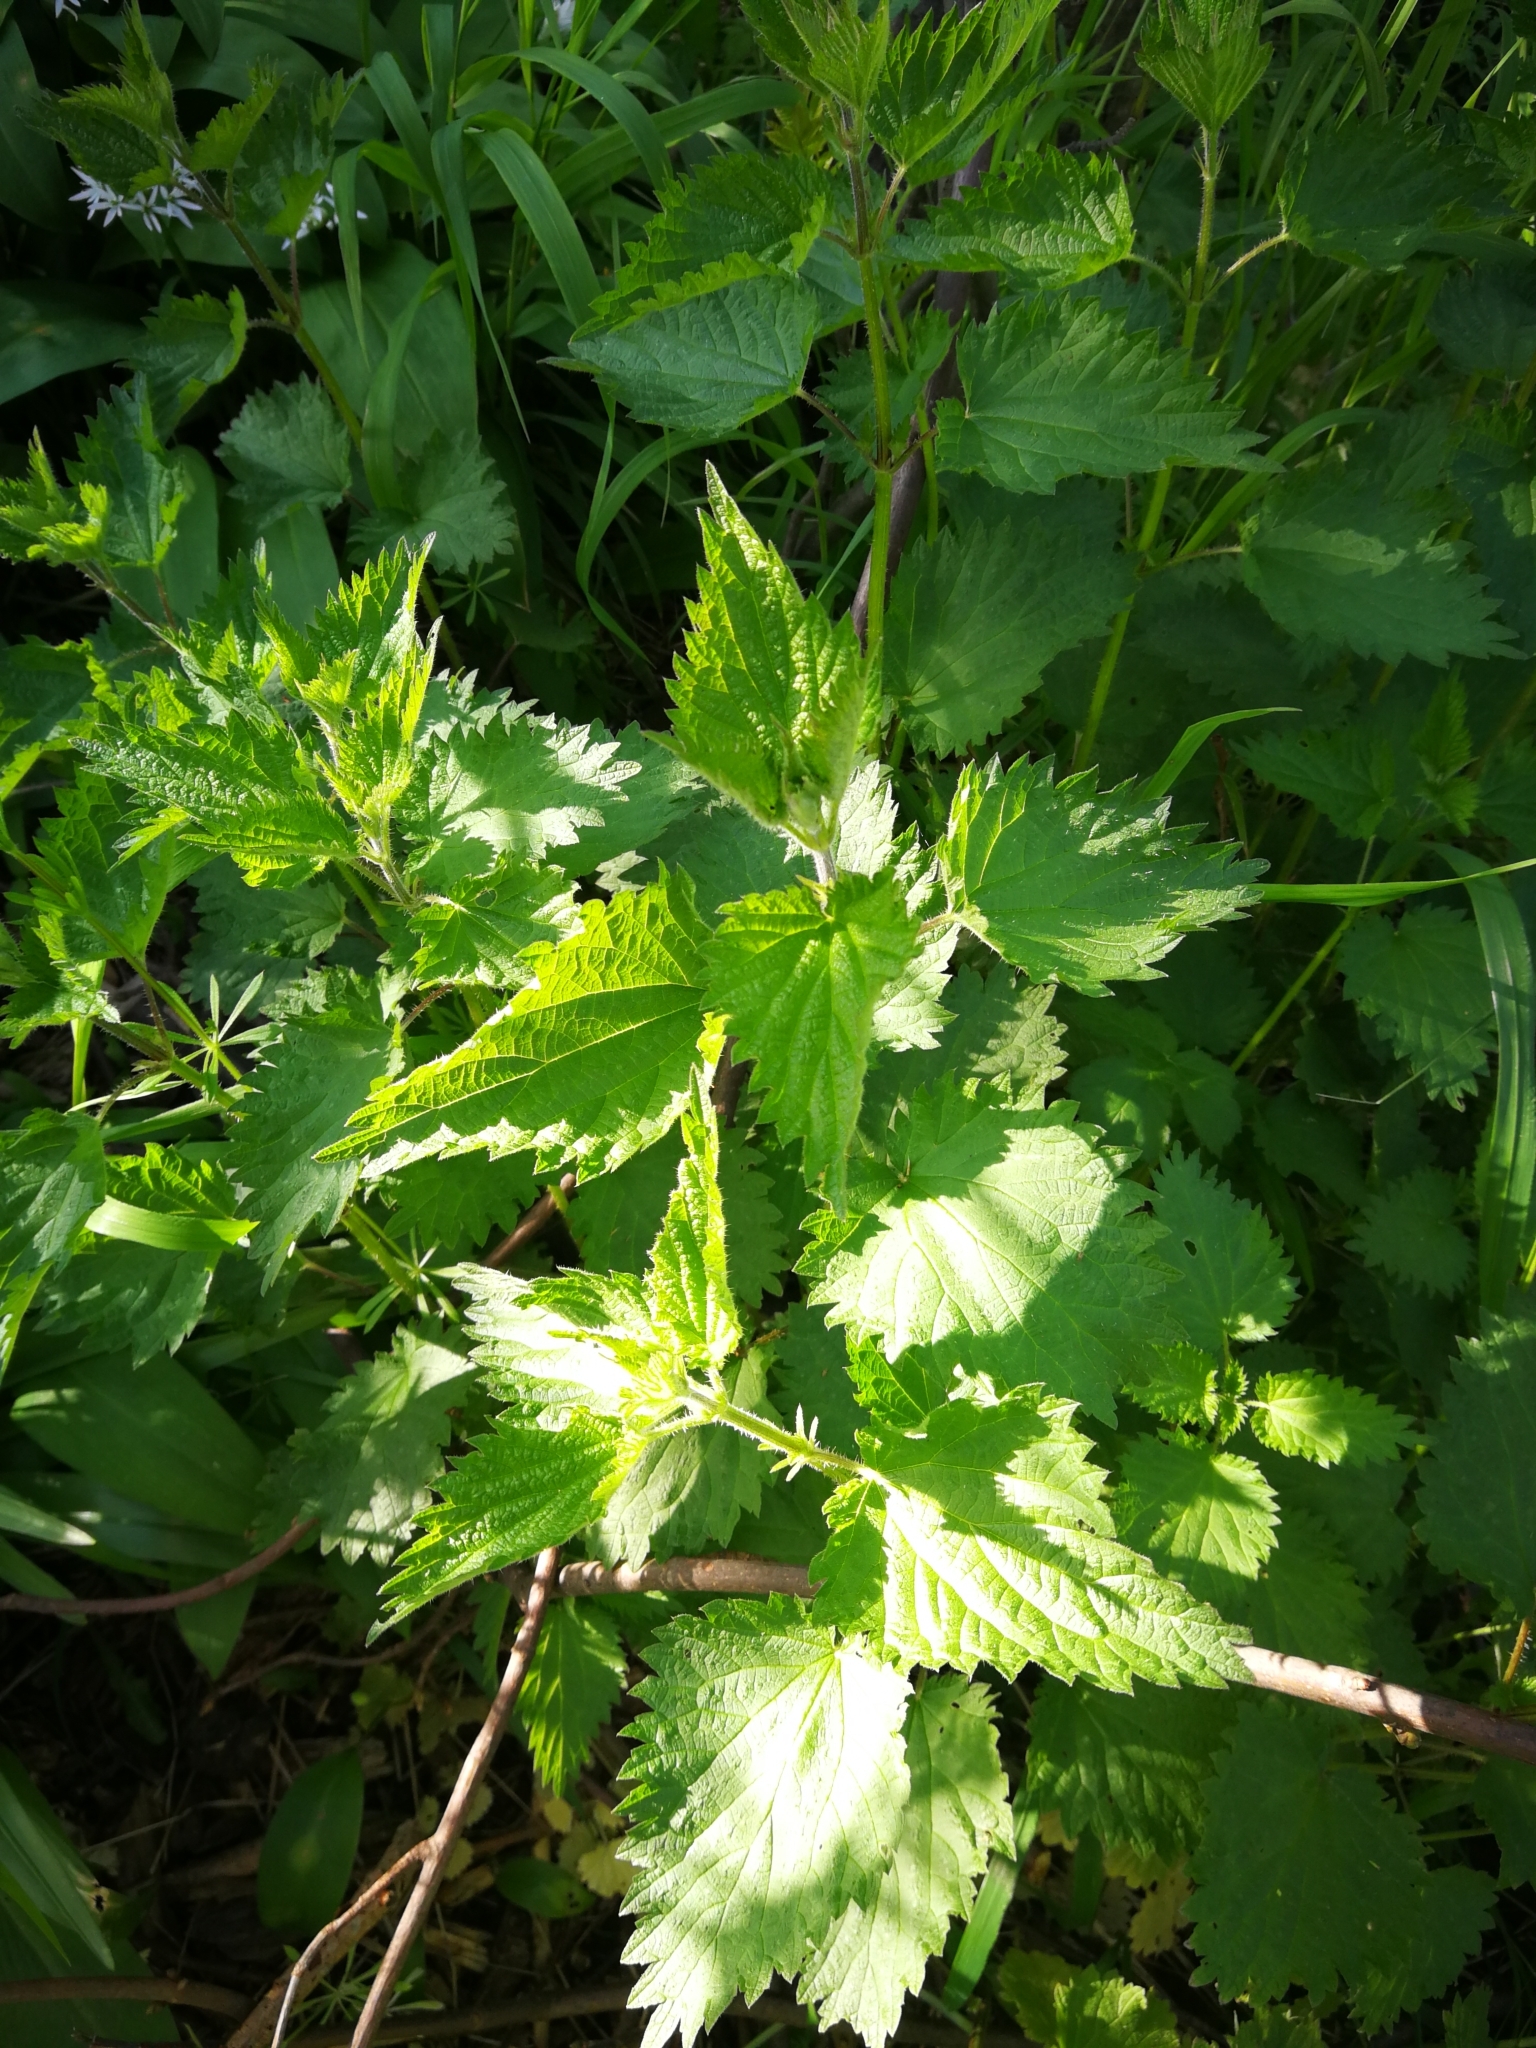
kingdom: Plantae
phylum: Tracheophyta
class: Magnoliopsida
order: Rosales
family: Urticaceae
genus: Urtica
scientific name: Urtica dioica
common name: Common nettle
